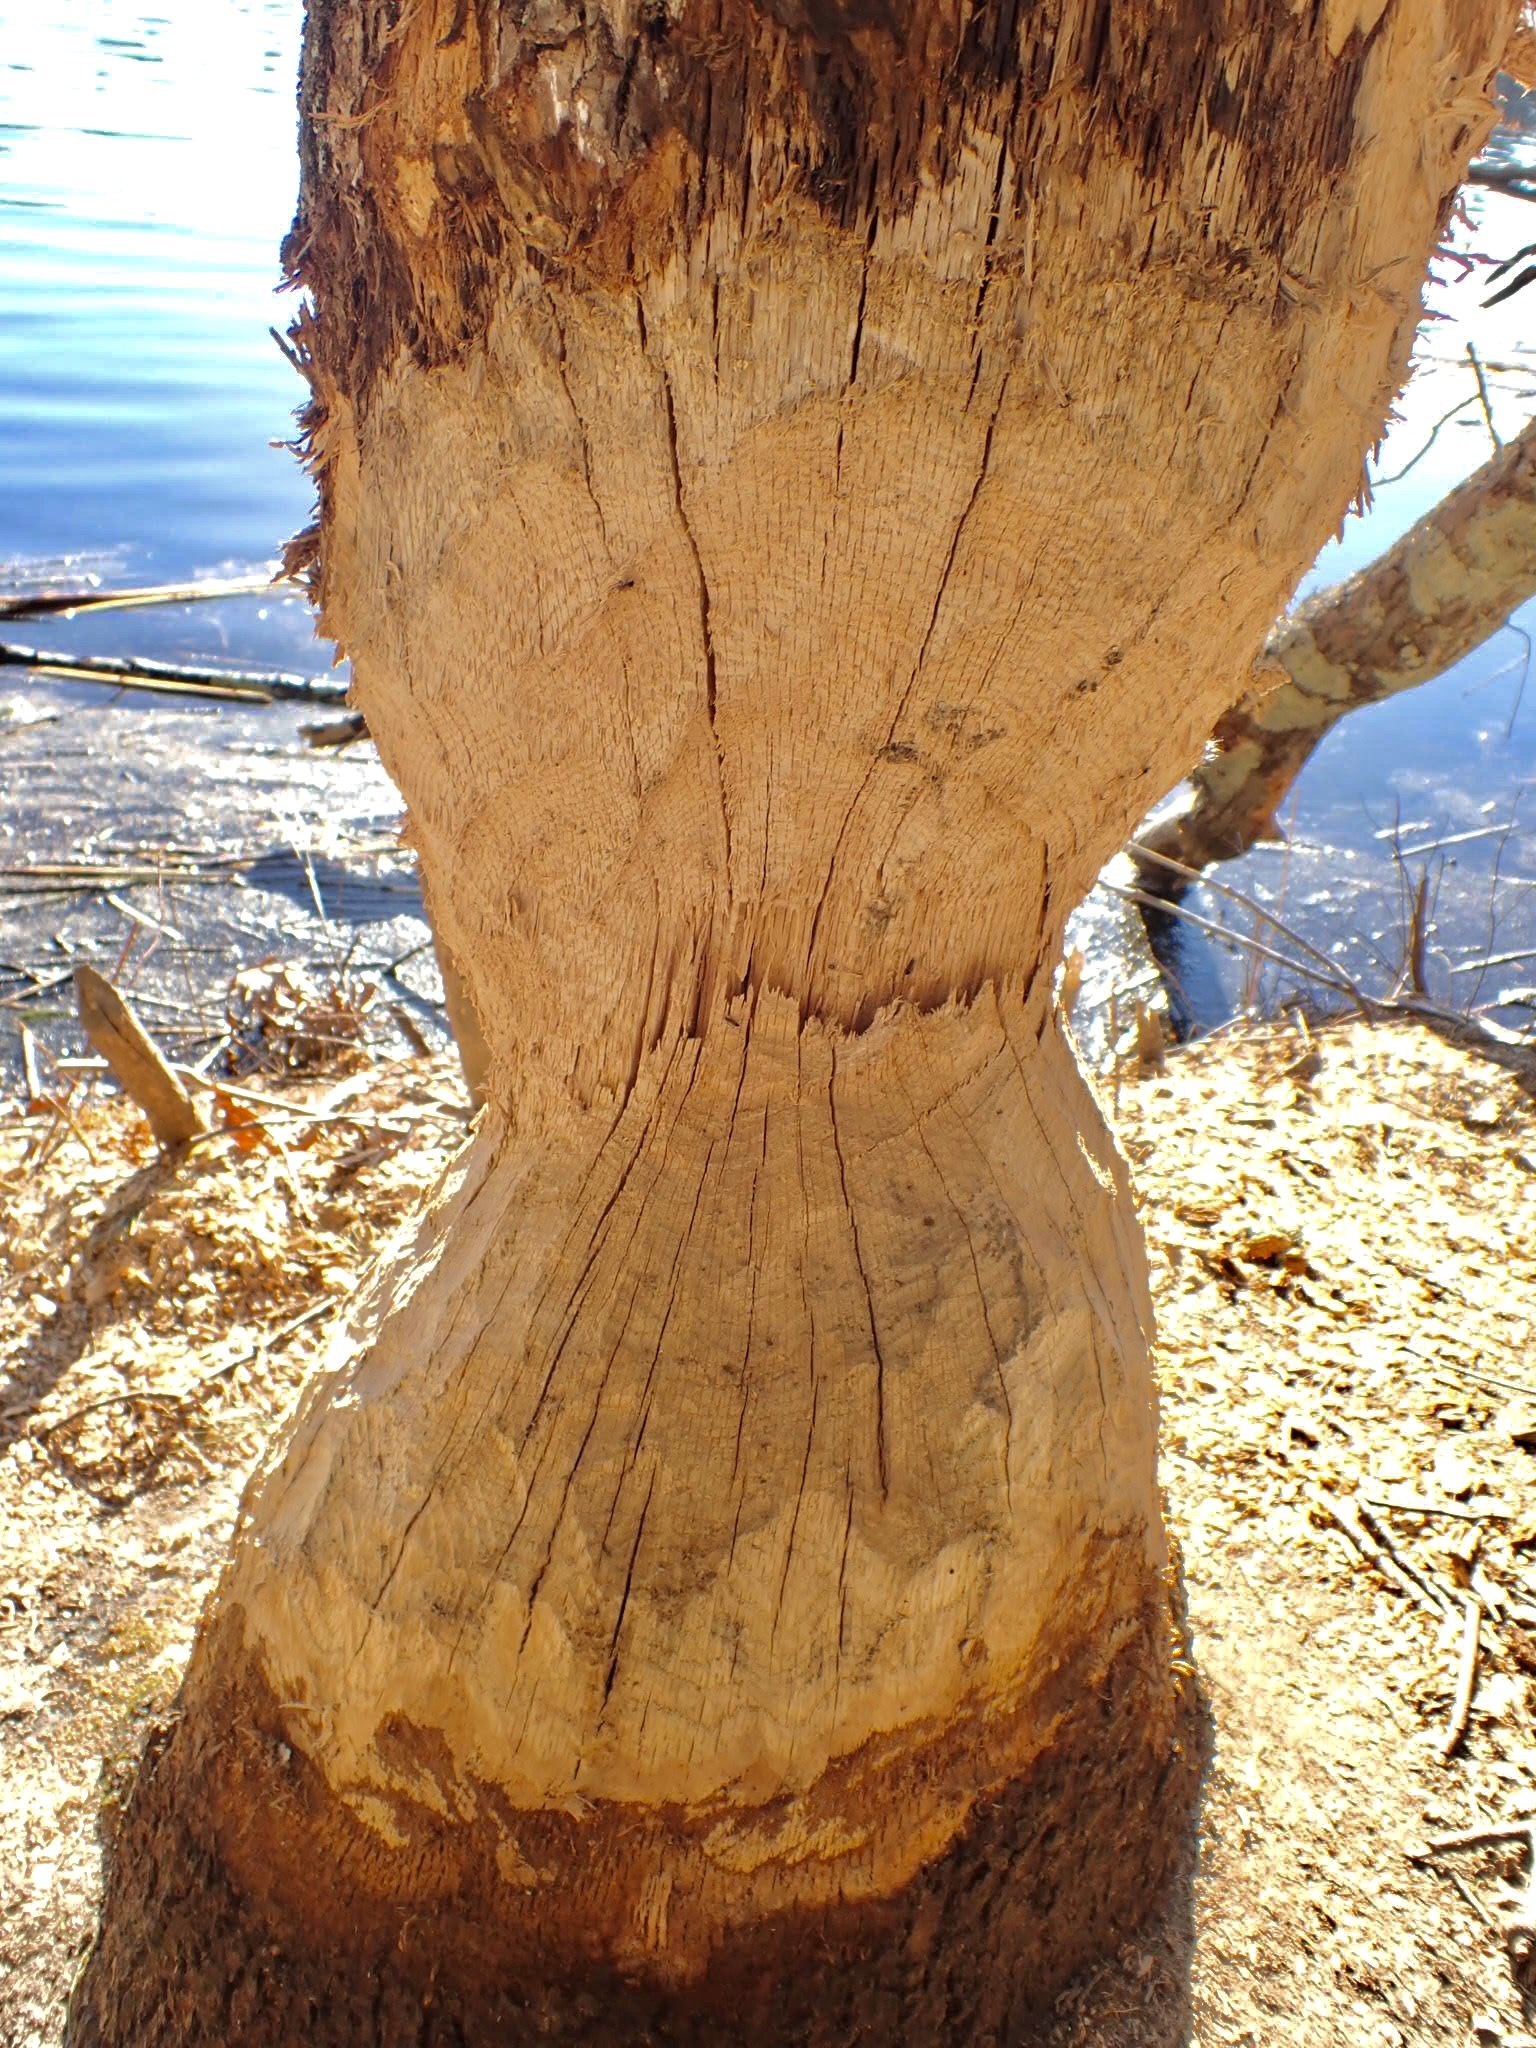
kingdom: Animalia
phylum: Chordata
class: Mammalia
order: Rodentia
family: Castoridae
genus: Castor
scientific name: Castor canadensis
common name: American beaver
